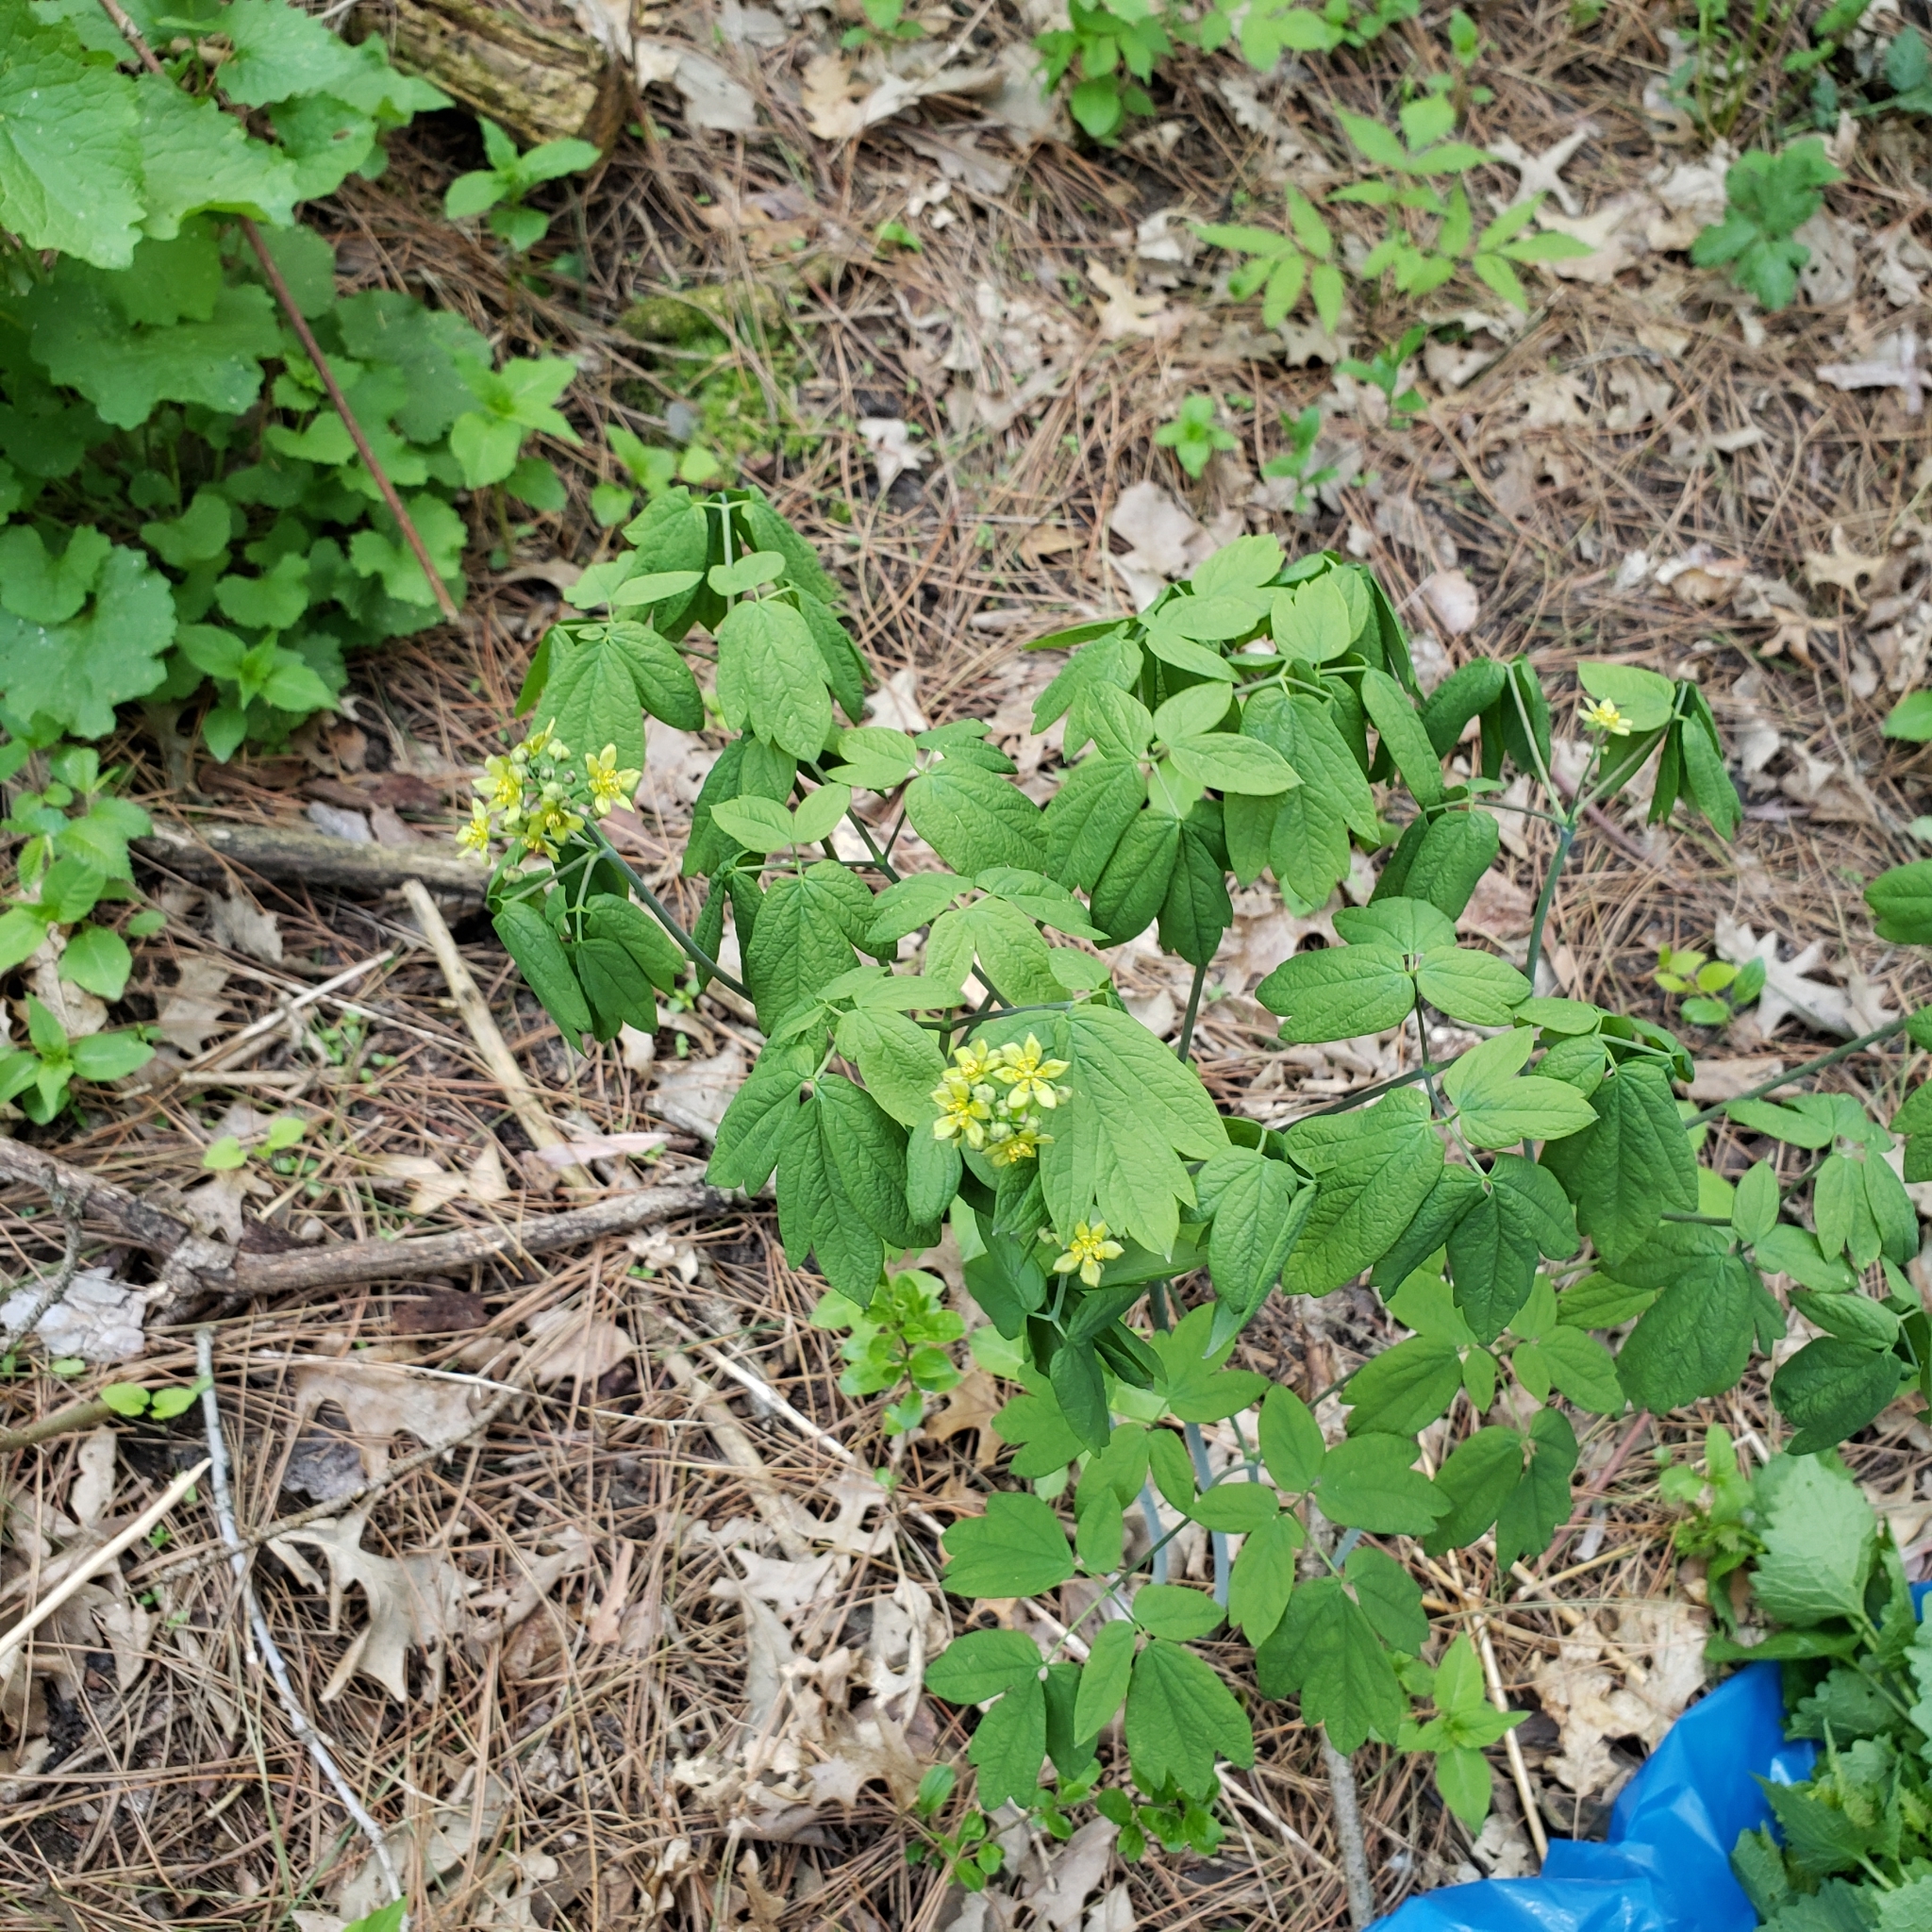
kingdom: Plantae
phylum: Tracheophyta
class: Magnoliopsida
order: Ranunculales
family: Berberidaceae
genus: Caulophyllum
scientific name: Caulophyllum thalictroides
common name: Blue cohosh
